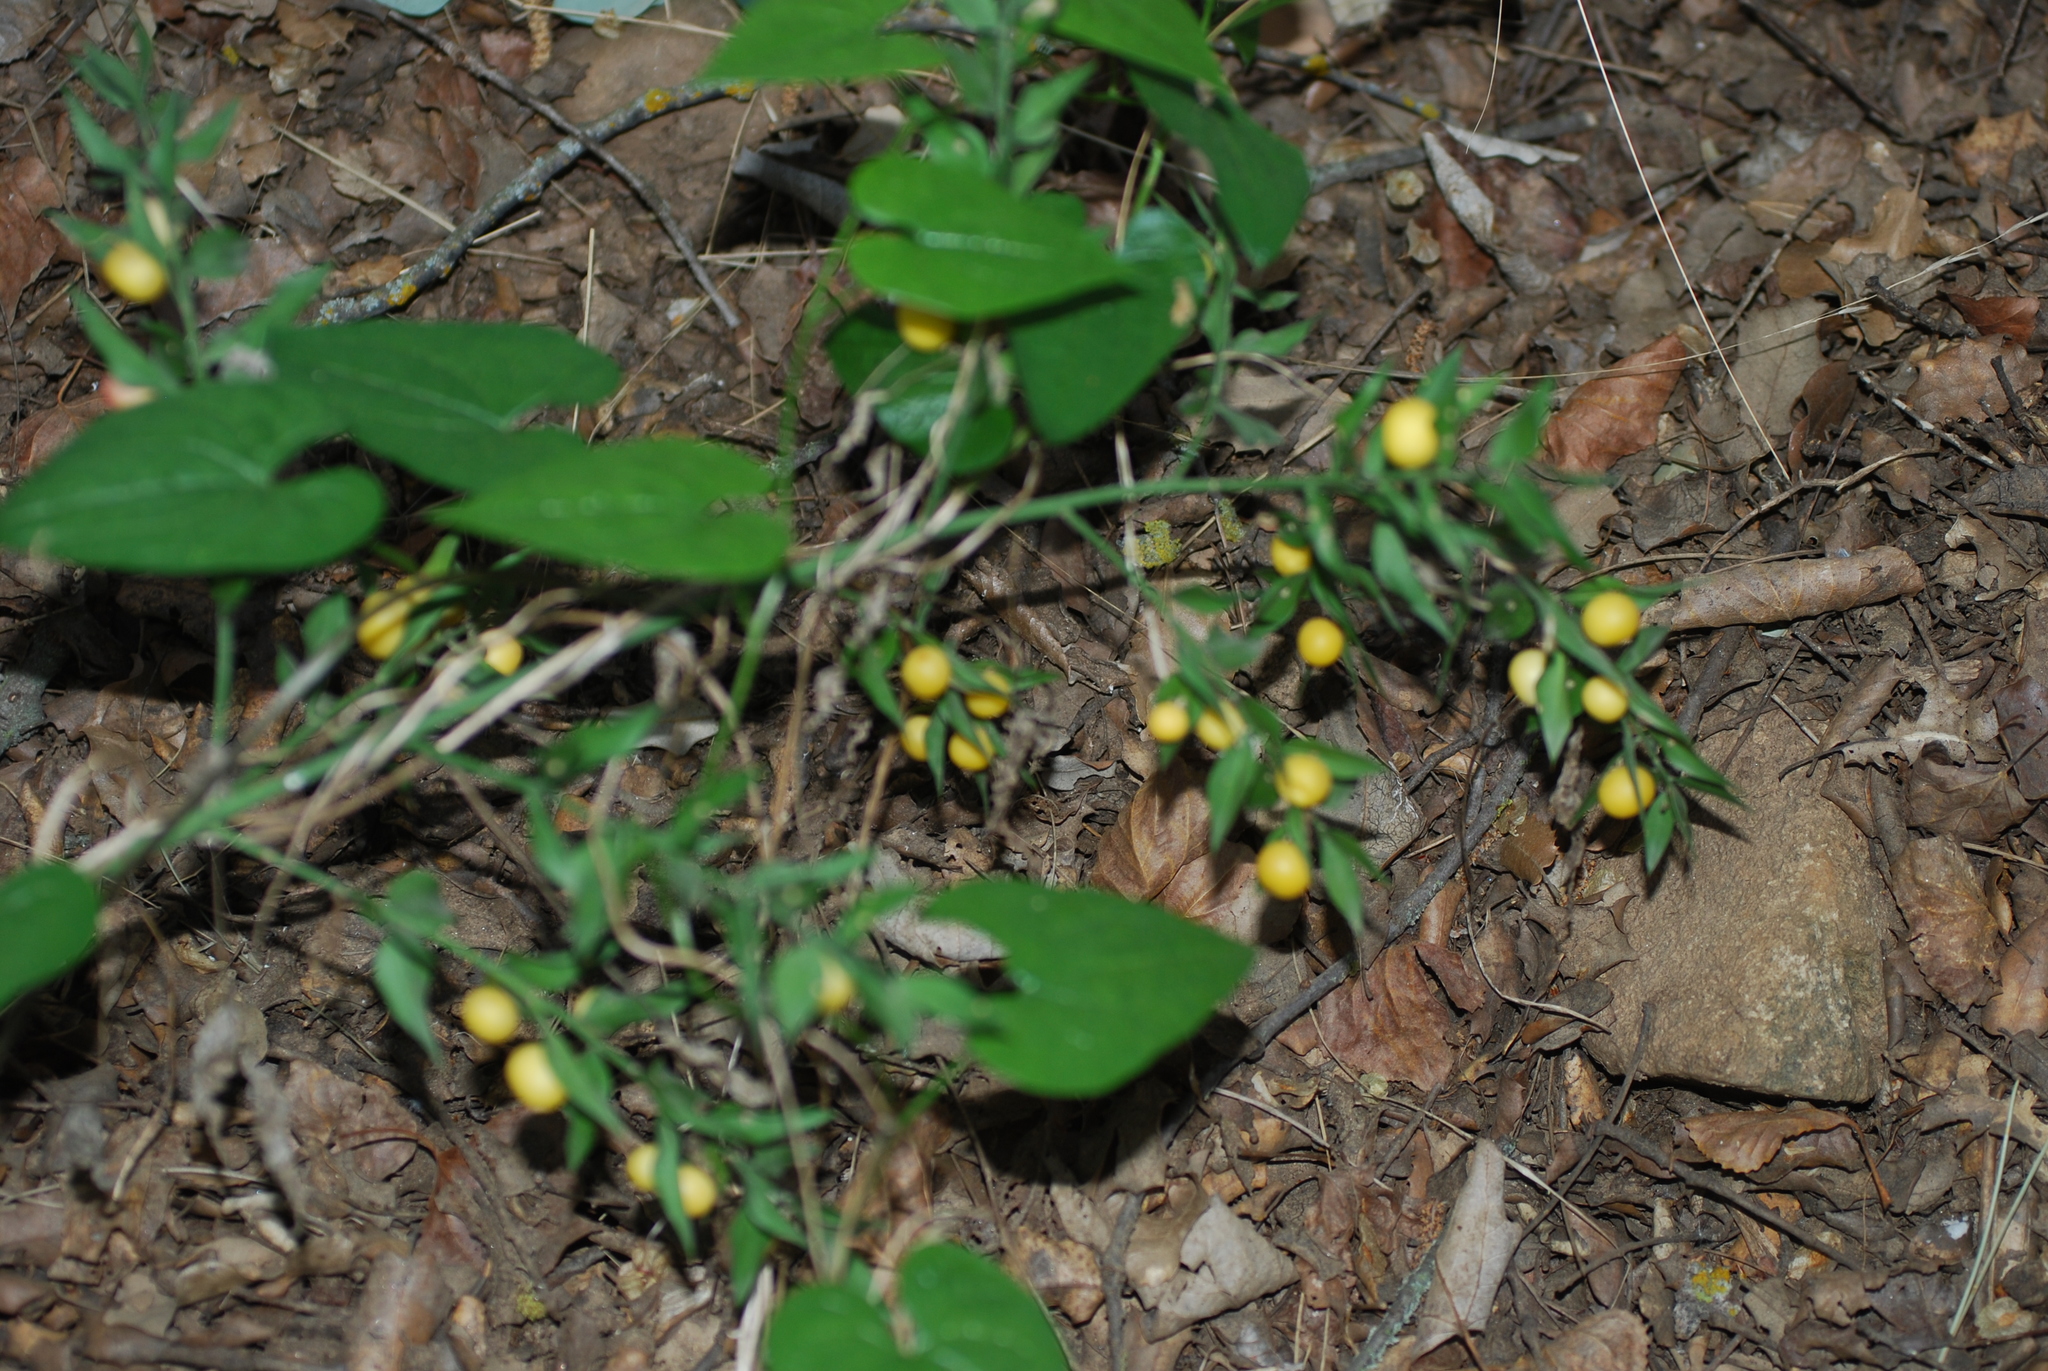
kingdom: Plantae
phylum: Tracheophyta
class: Liliopsida
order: Asparagales
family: Asparagaceae
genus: Ruscus
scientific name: Ruscus aculeatus
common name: Butcher's-broom
